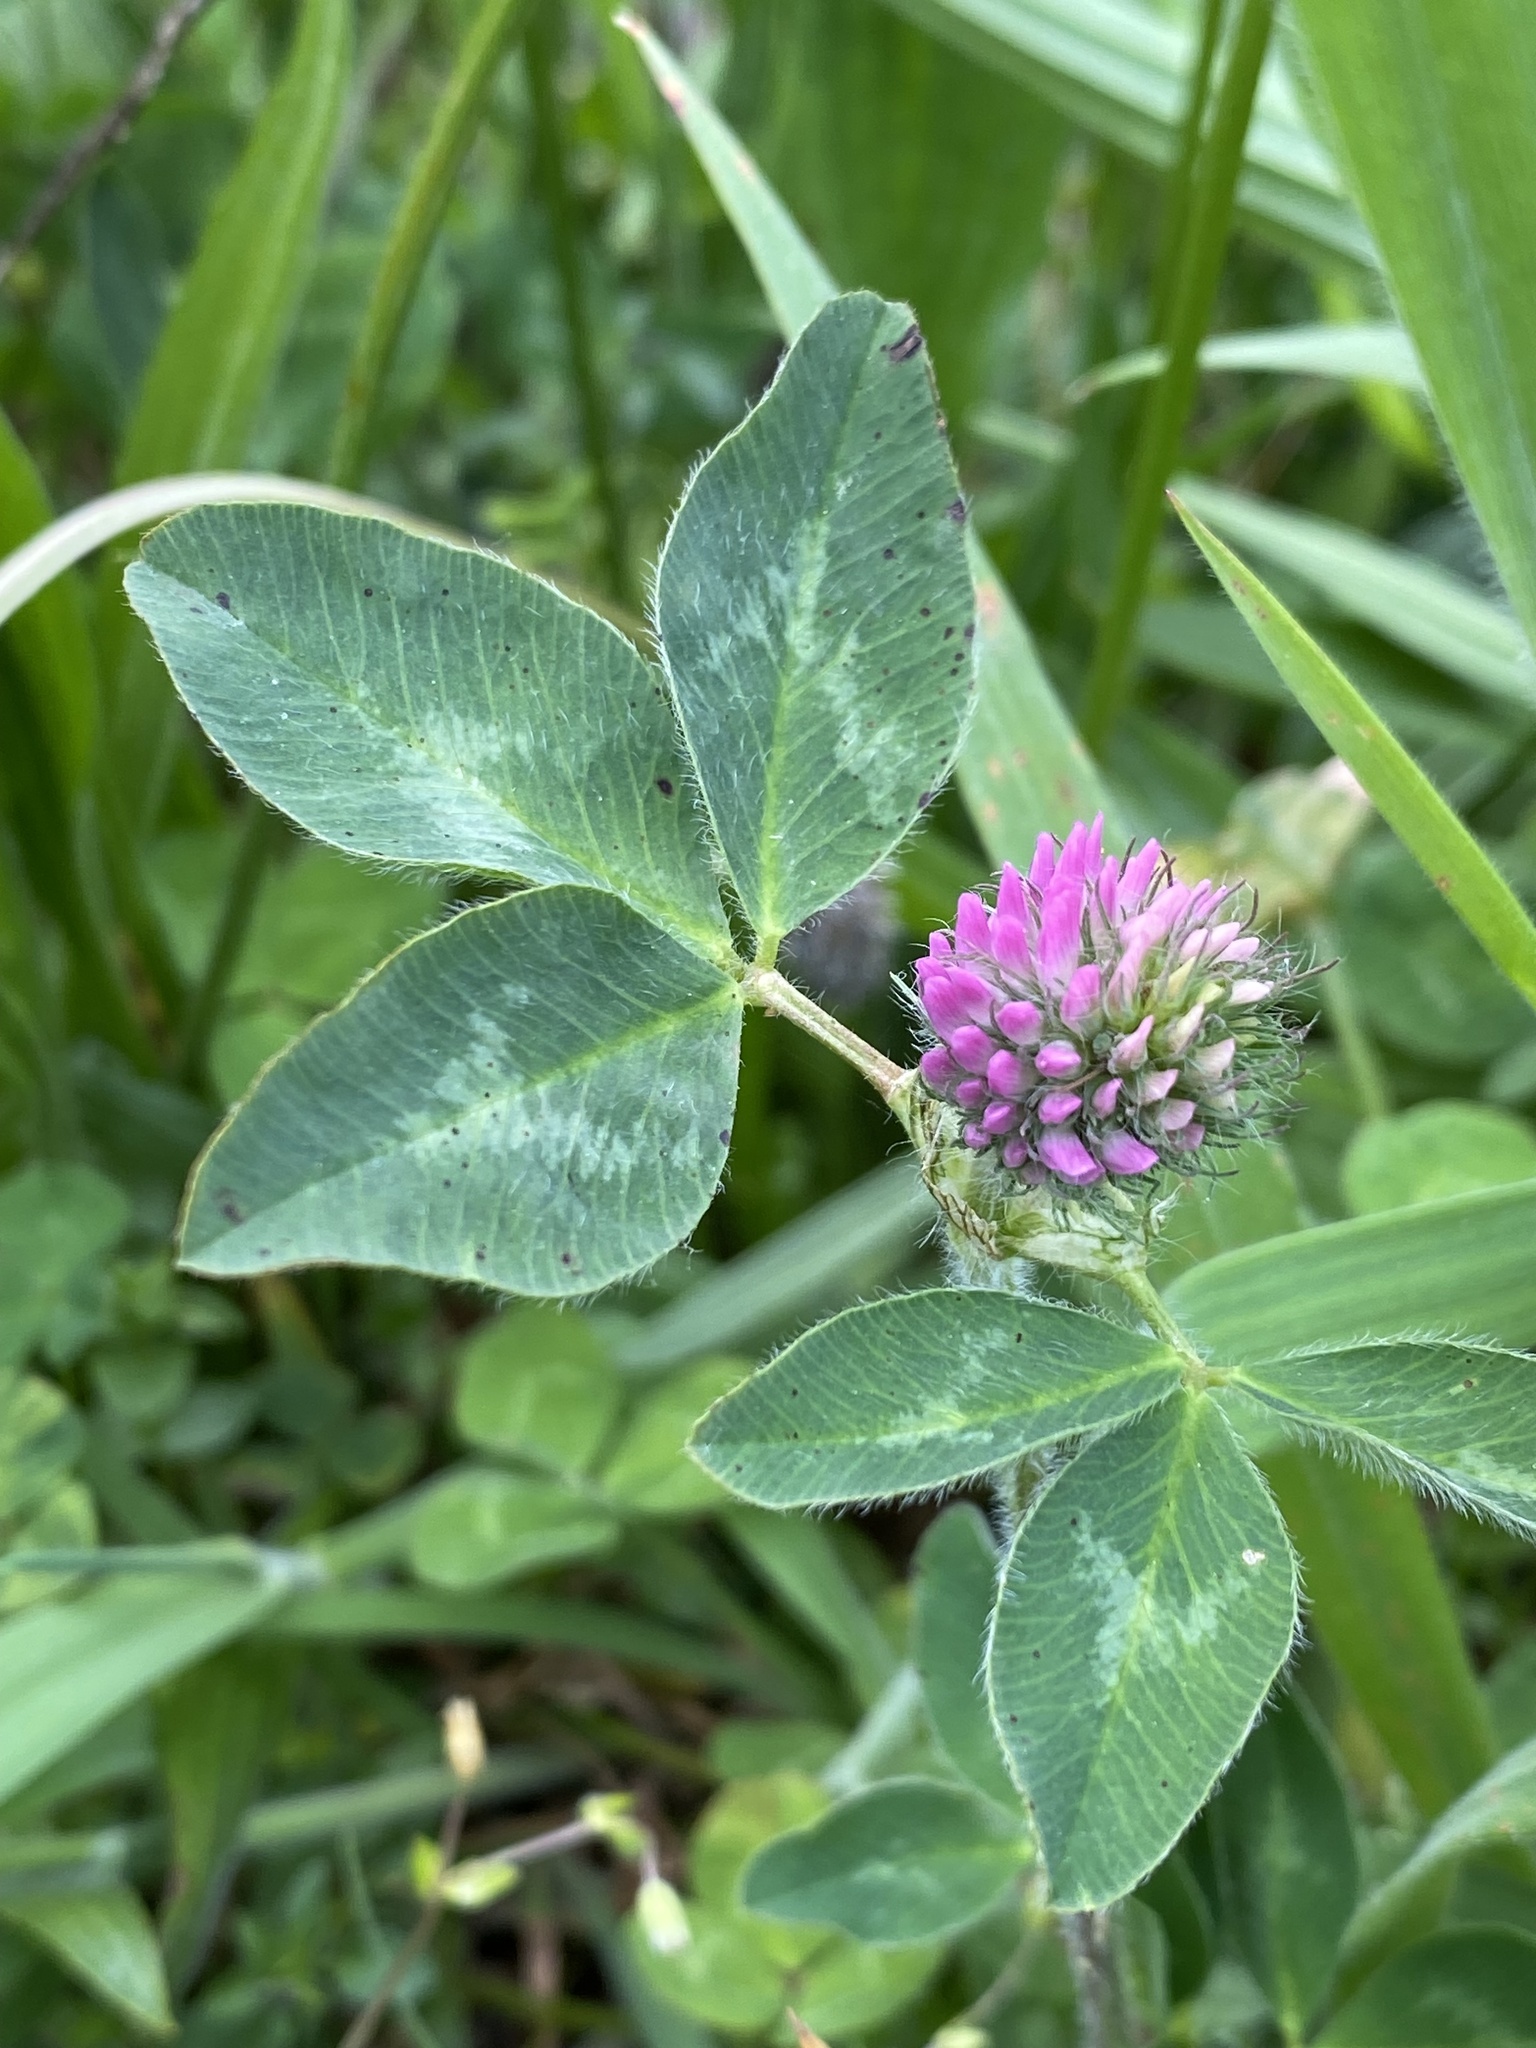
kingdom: Plantae
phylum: Tracheophyta
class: Magnoliopsida
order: Fabales
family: Fabaceae
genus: Trifolium
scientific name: Trifolium pratense
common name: Red clover
